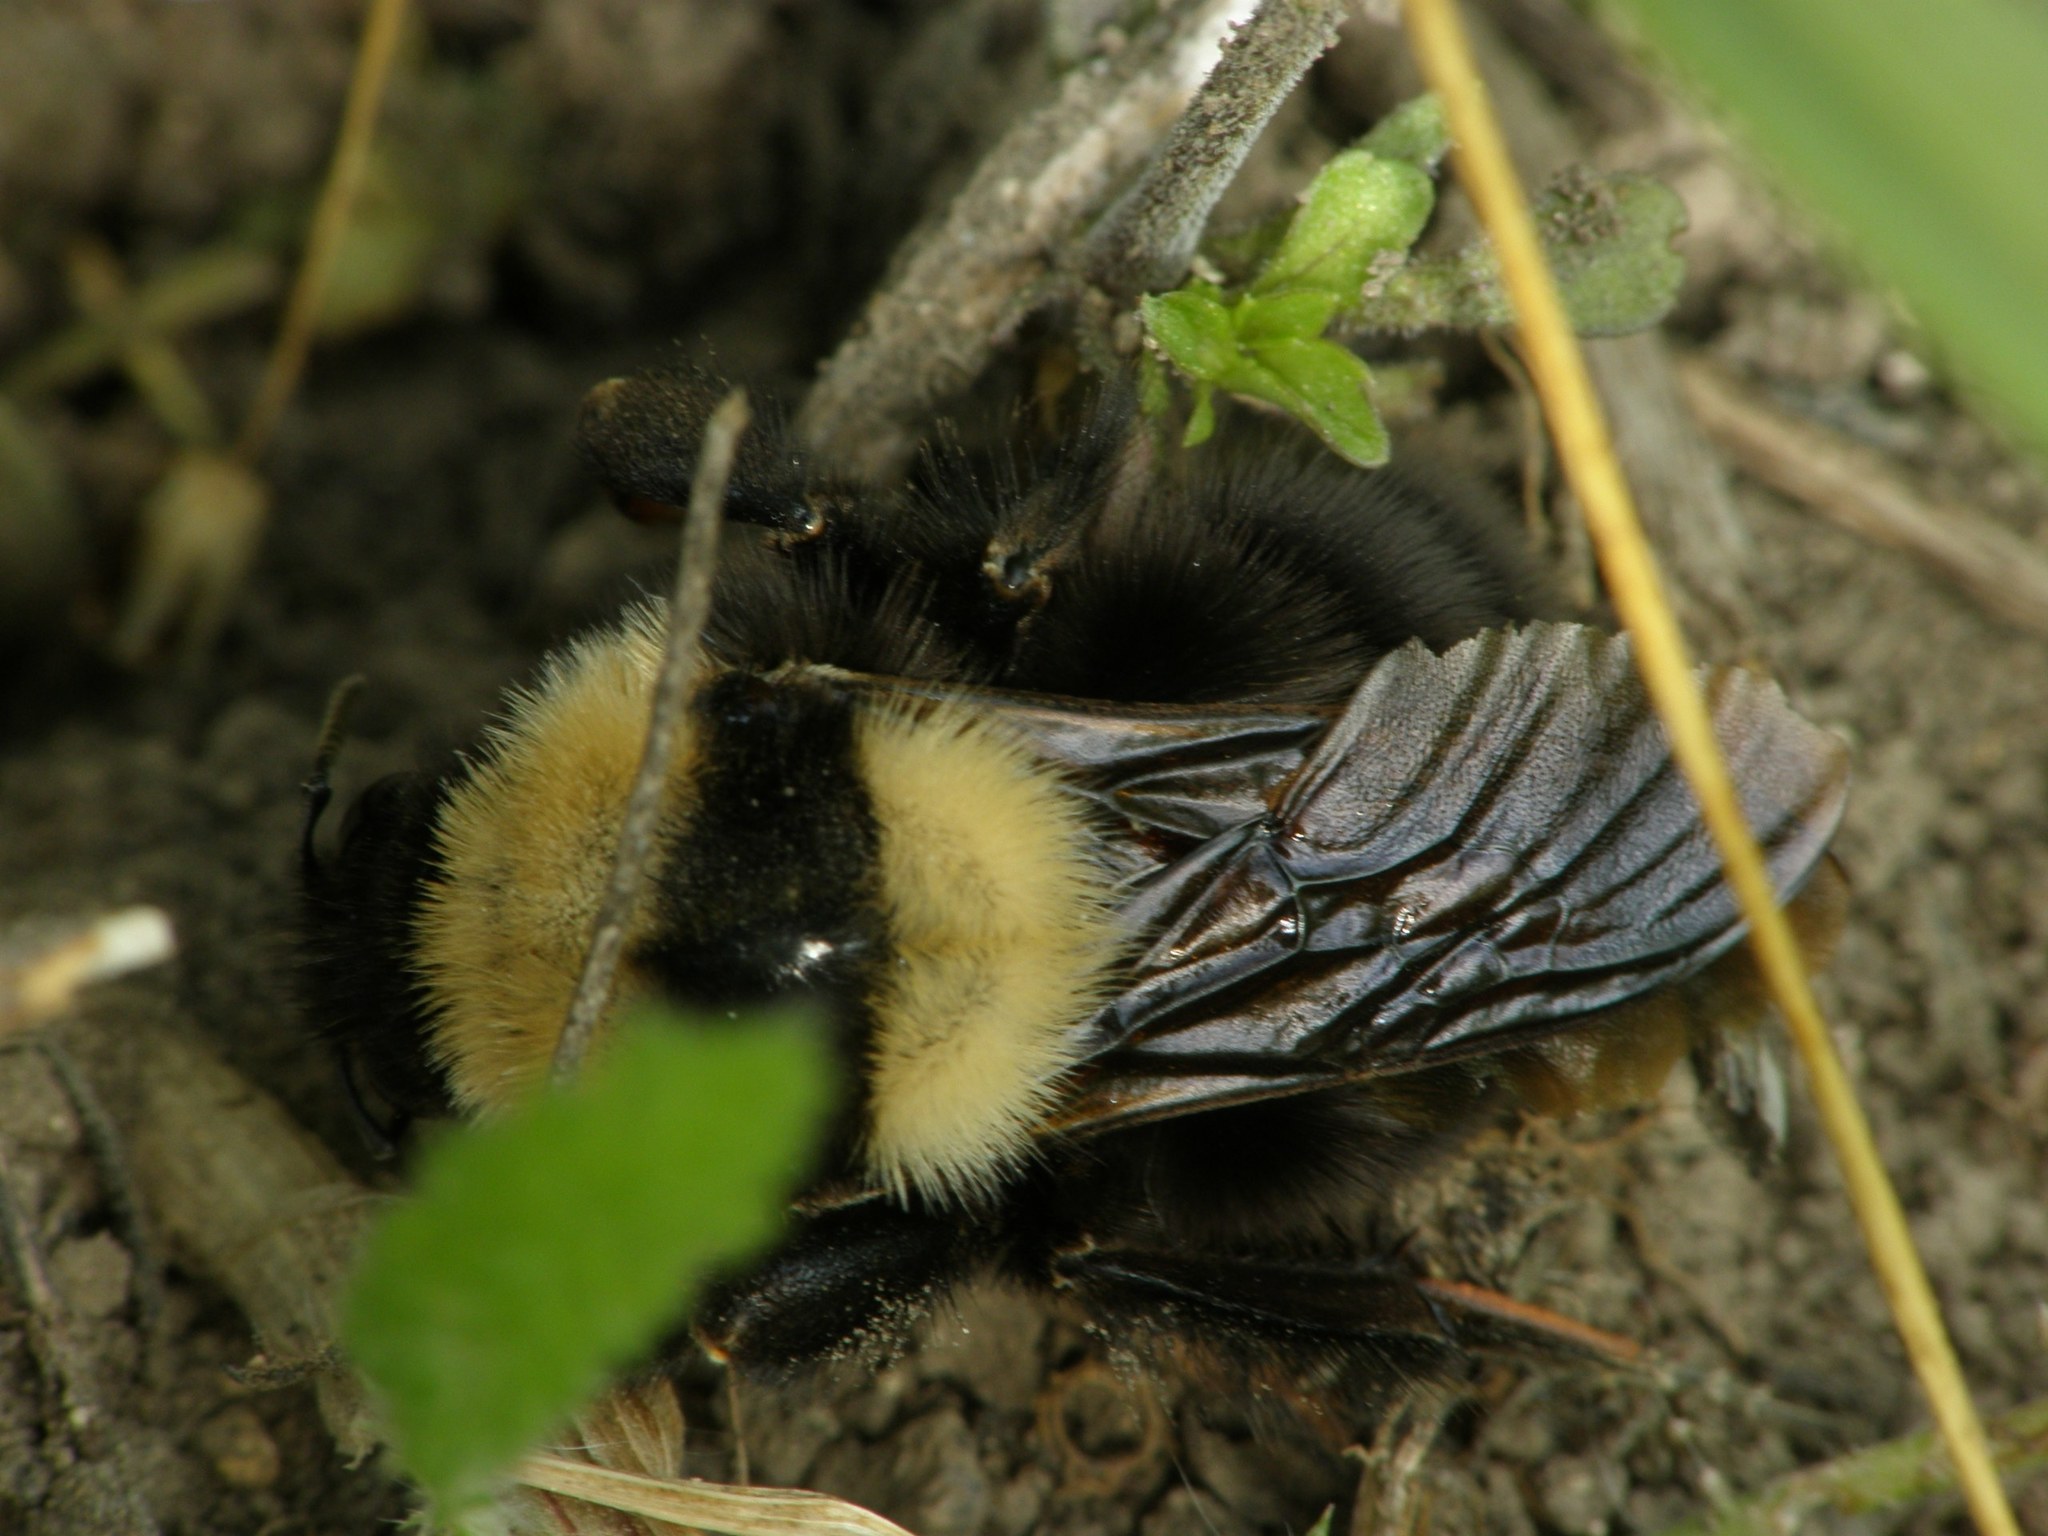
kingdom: Animalia
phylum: Arthropoda
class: Insecta
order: Hymenoptera
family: Apidae
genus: Bombus
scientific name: Bombus argillaceus
